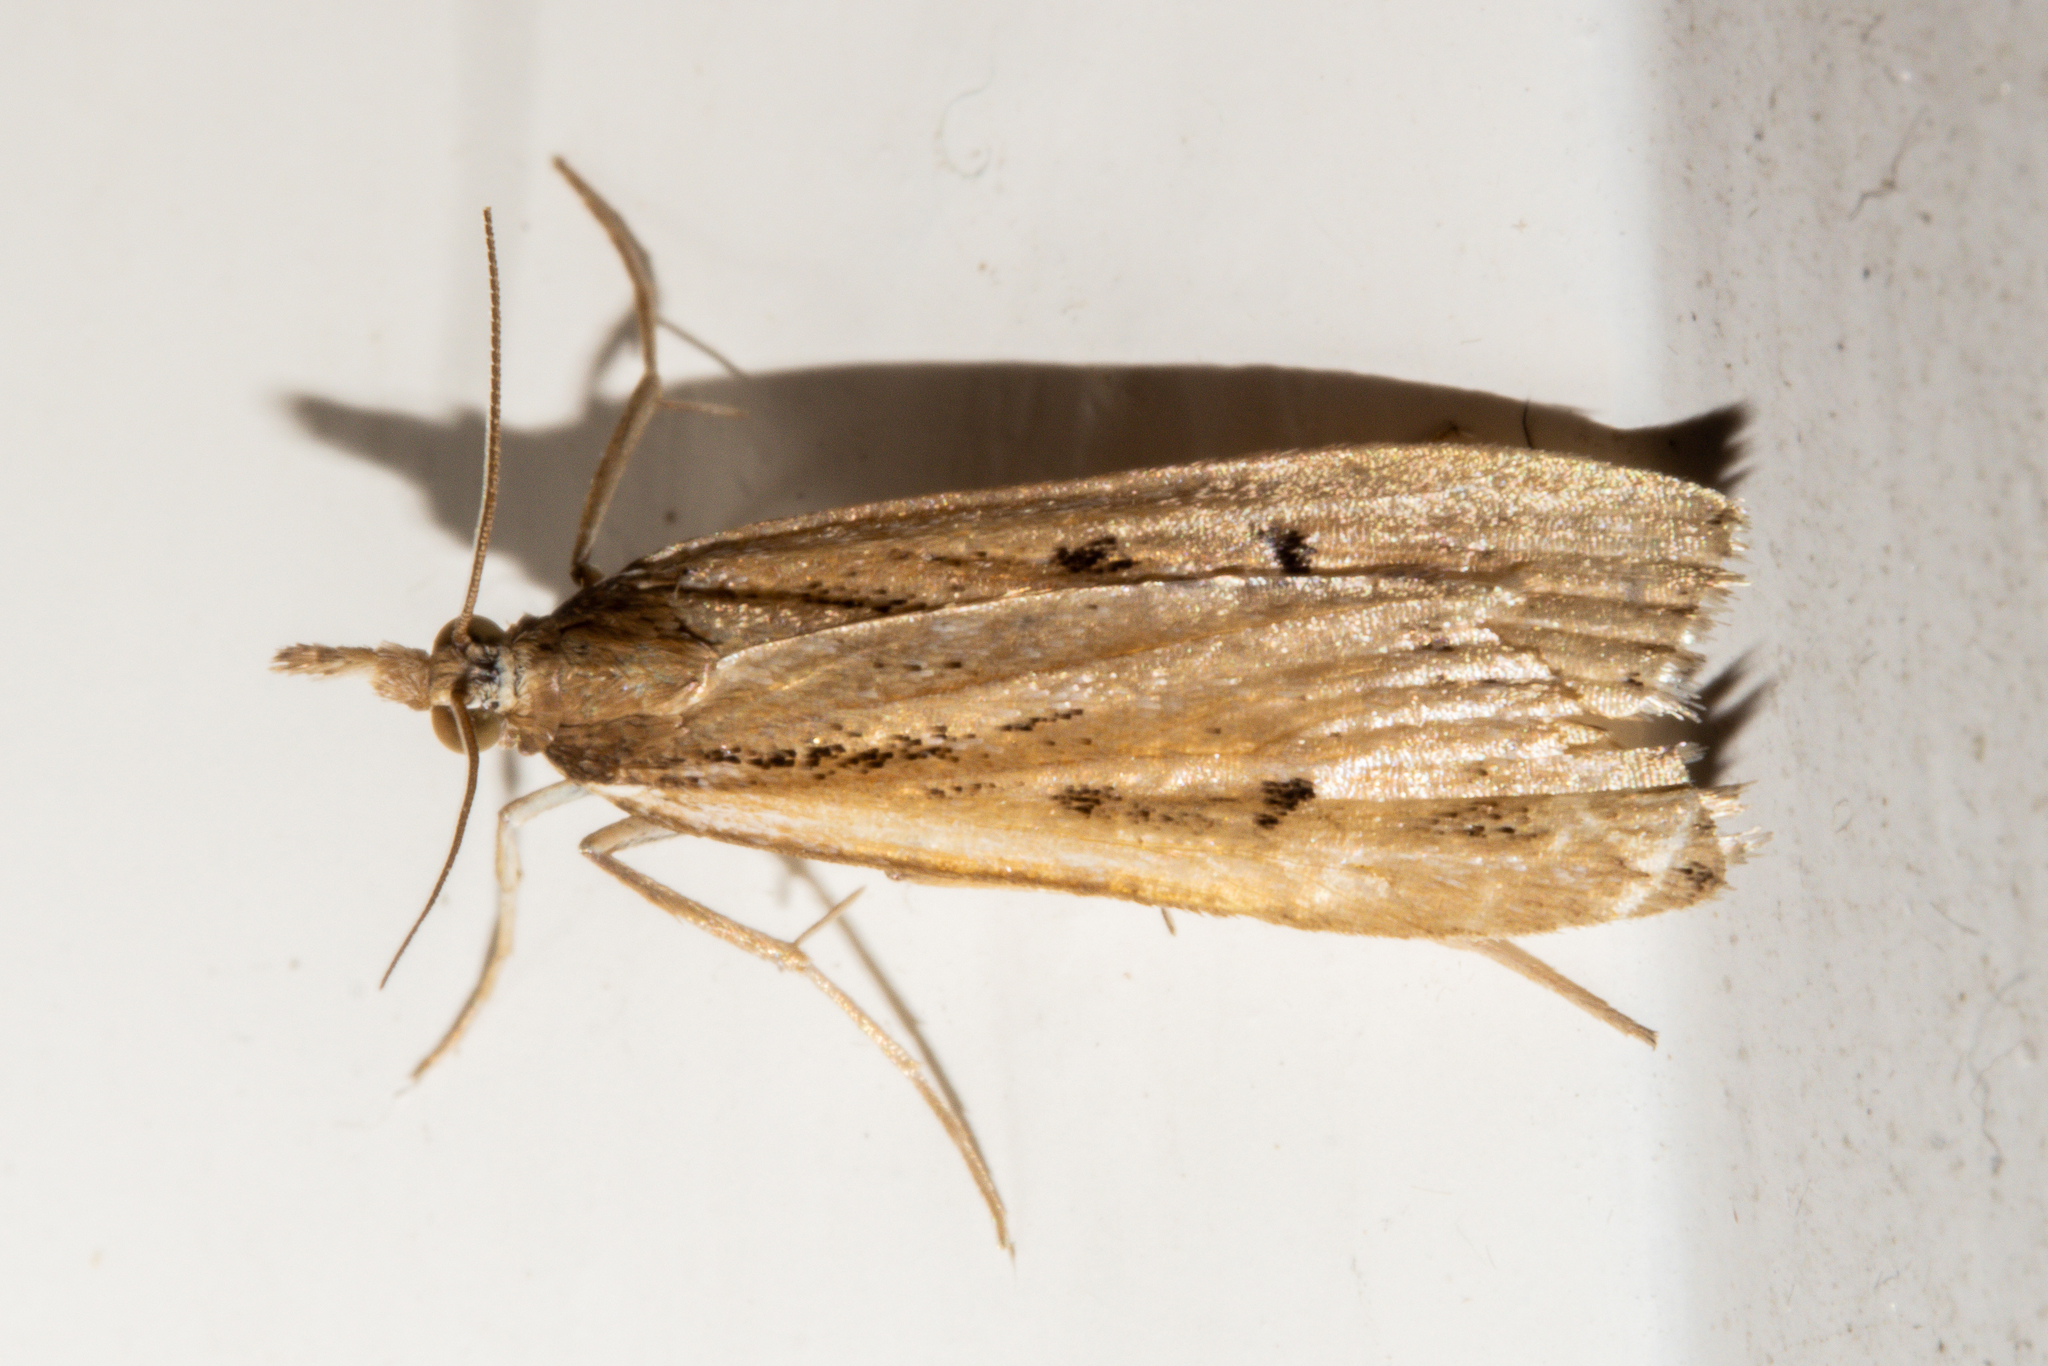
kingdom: Animalia
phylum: Arthropoda
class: Insecta
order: Lepidoptera
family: Crambidae
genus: Eudonia
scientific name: Eudonia sabulosella
